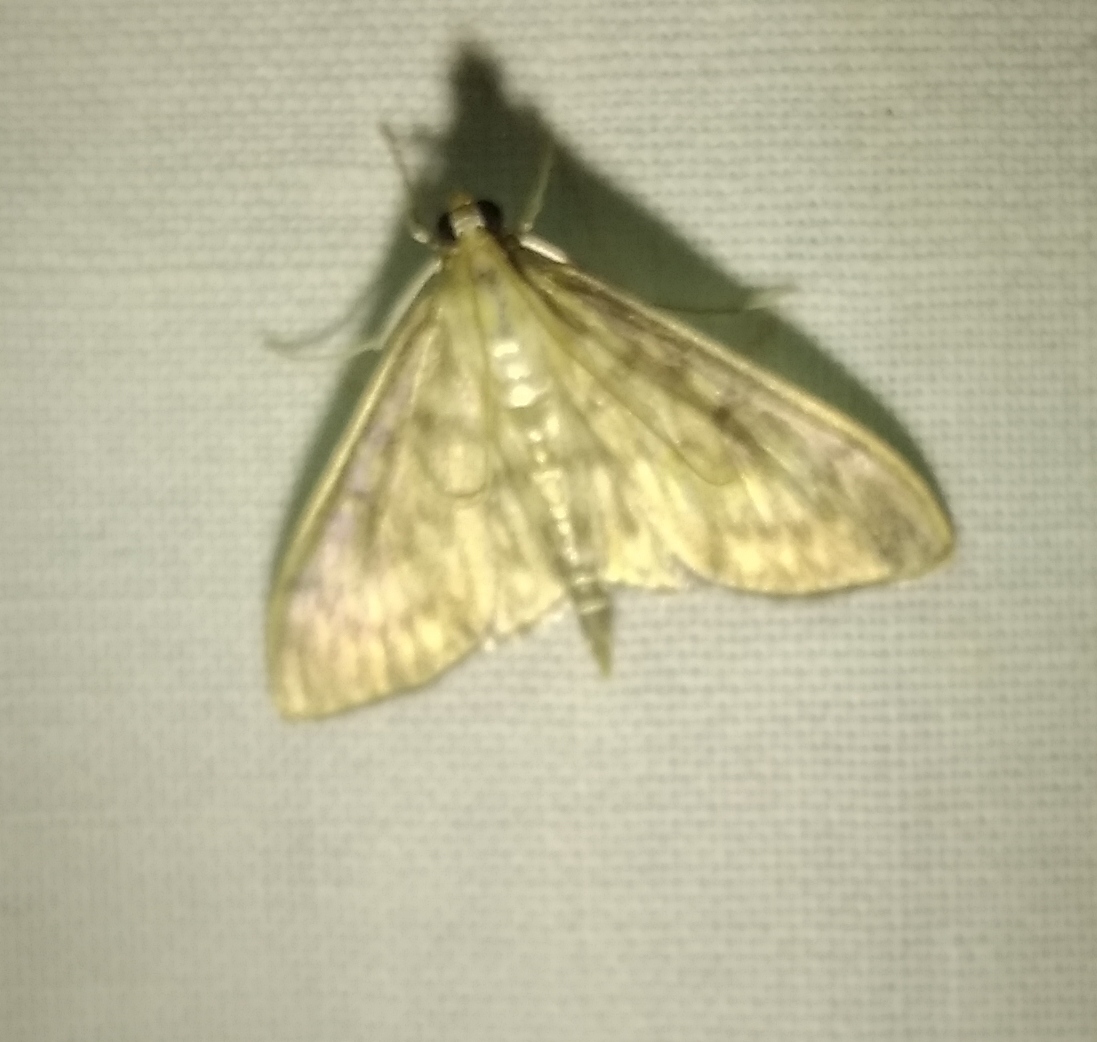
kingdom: Animalia
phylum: Arthropoda
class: Insecta
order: Lepidoptera
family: Crambidae
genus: Patania
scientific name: Patania ruralis
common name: Mother of pearl
